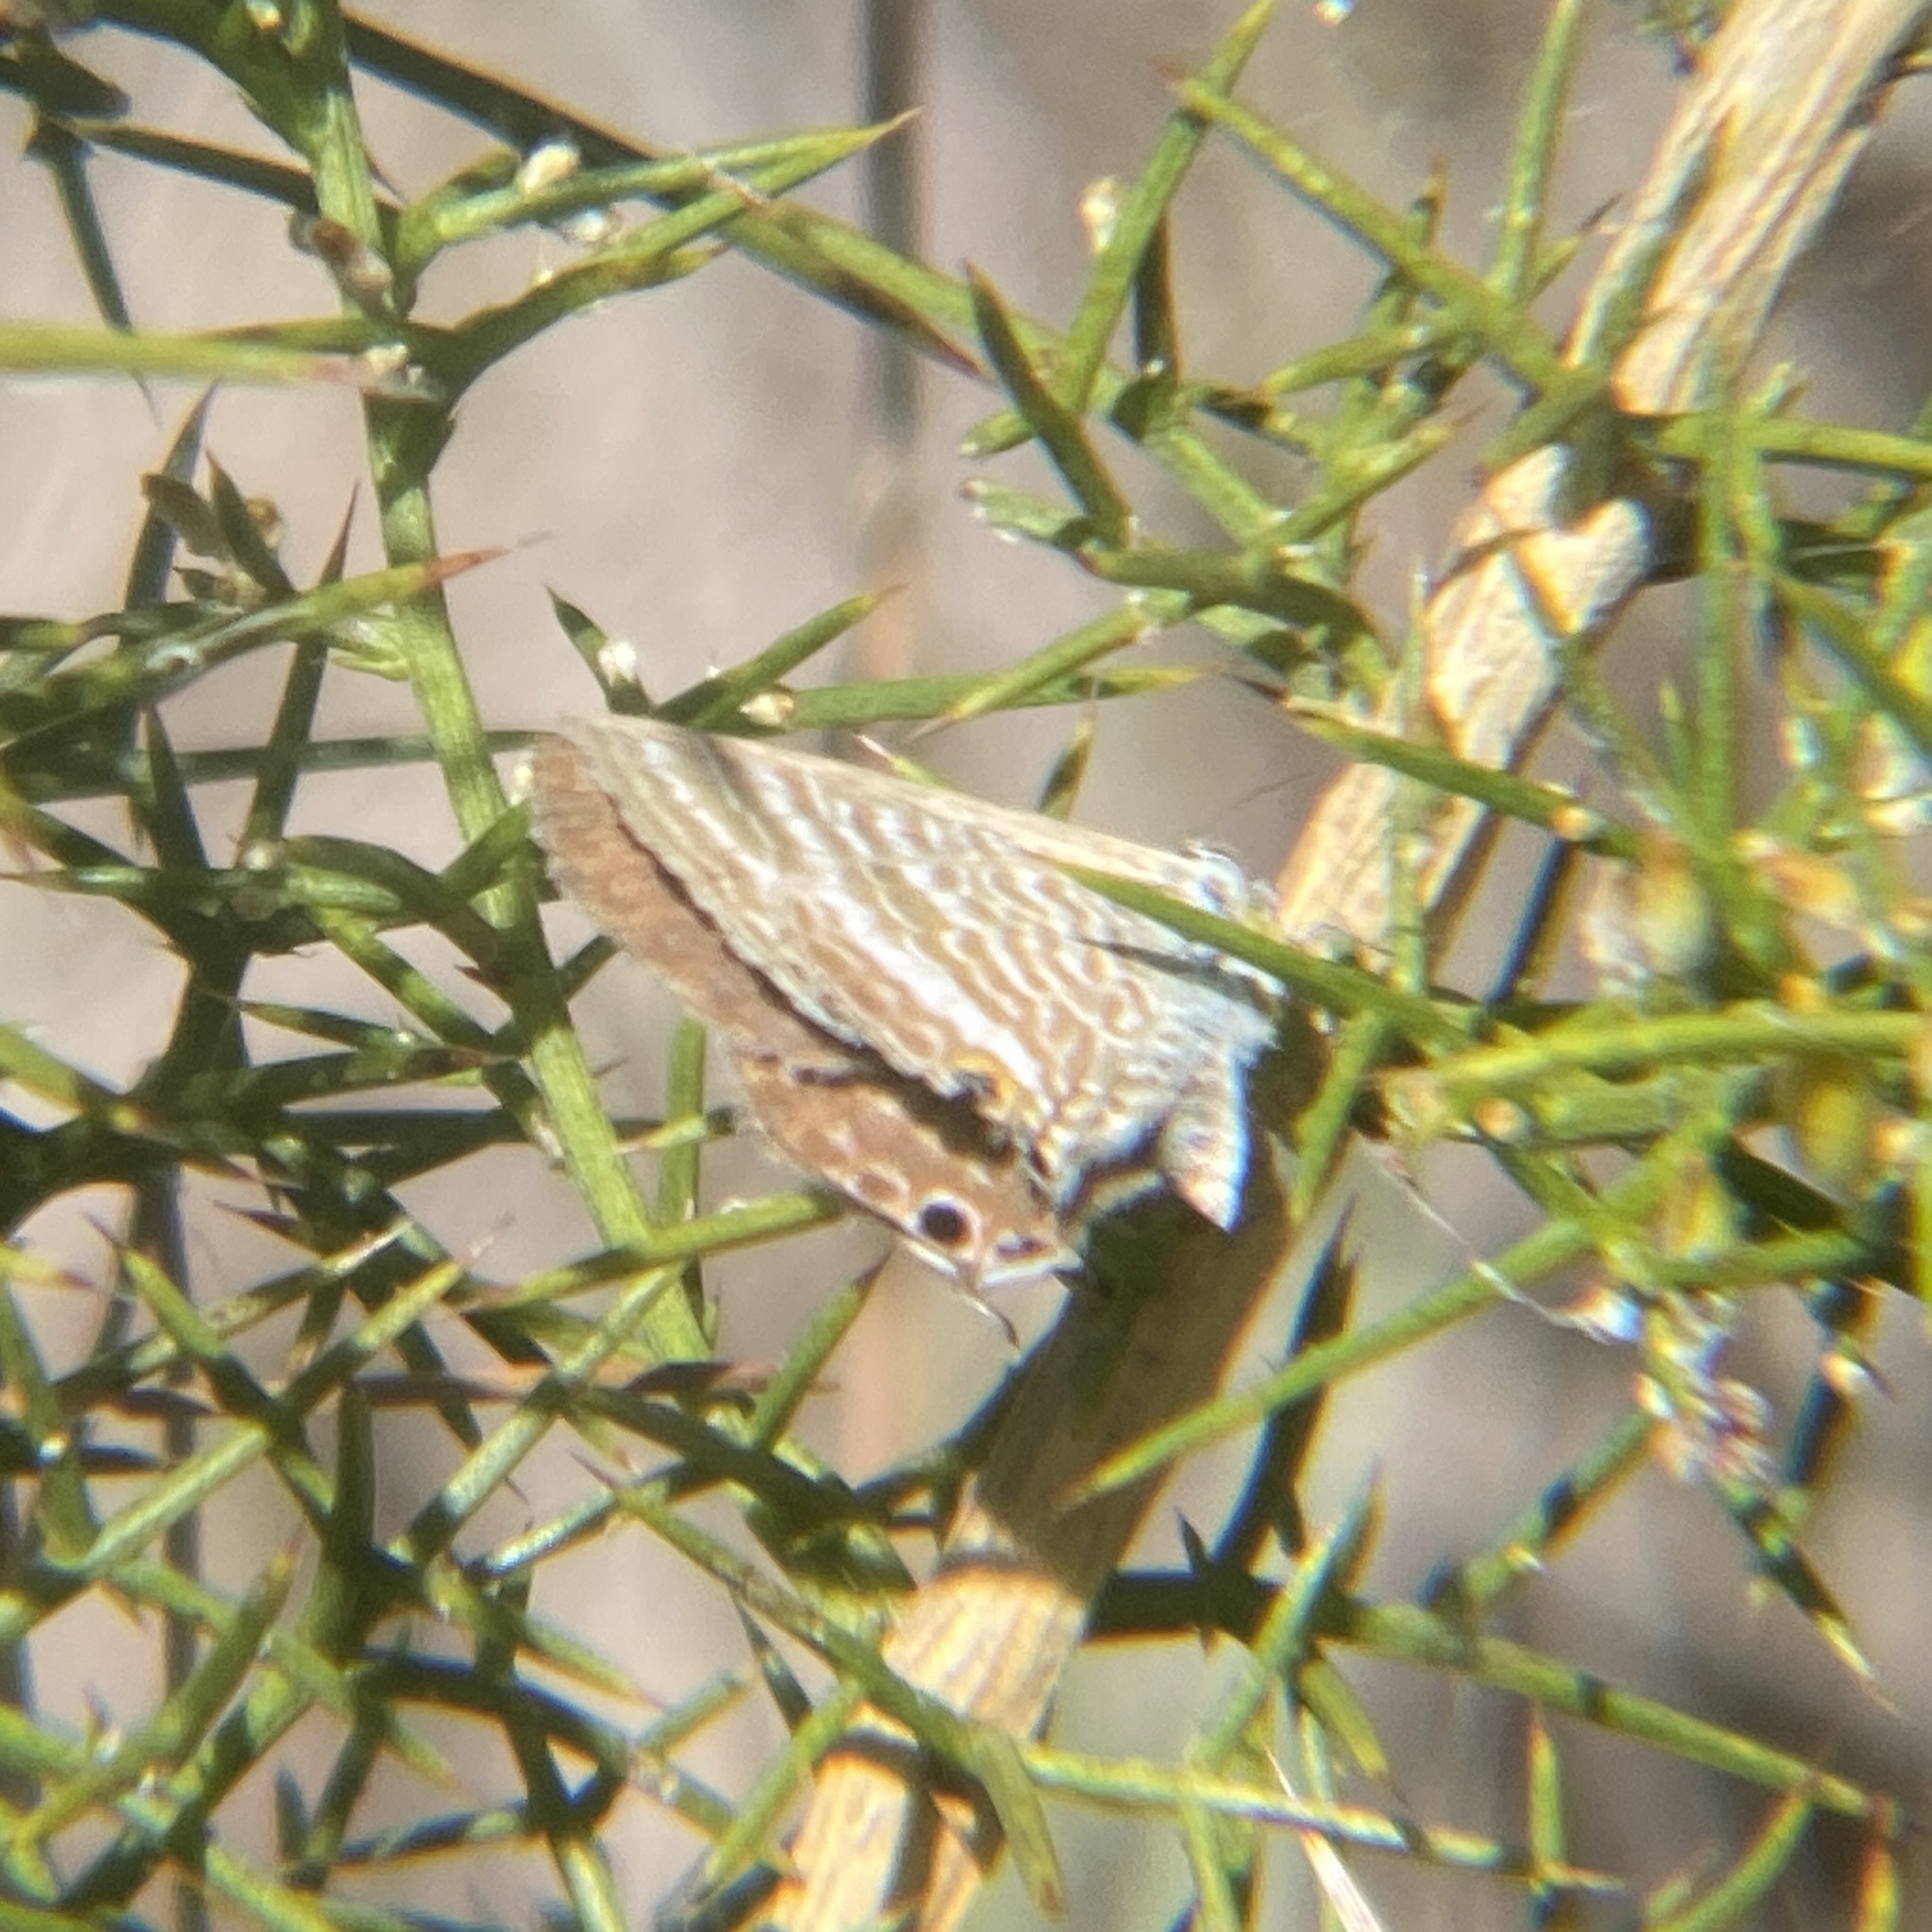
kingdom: Animalia
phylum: Arthropoda
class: Insecta
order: Lepidoptera
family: Lycaenidae
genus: Lampides
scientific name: Lampides boeticus
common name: Long-tailed blue
